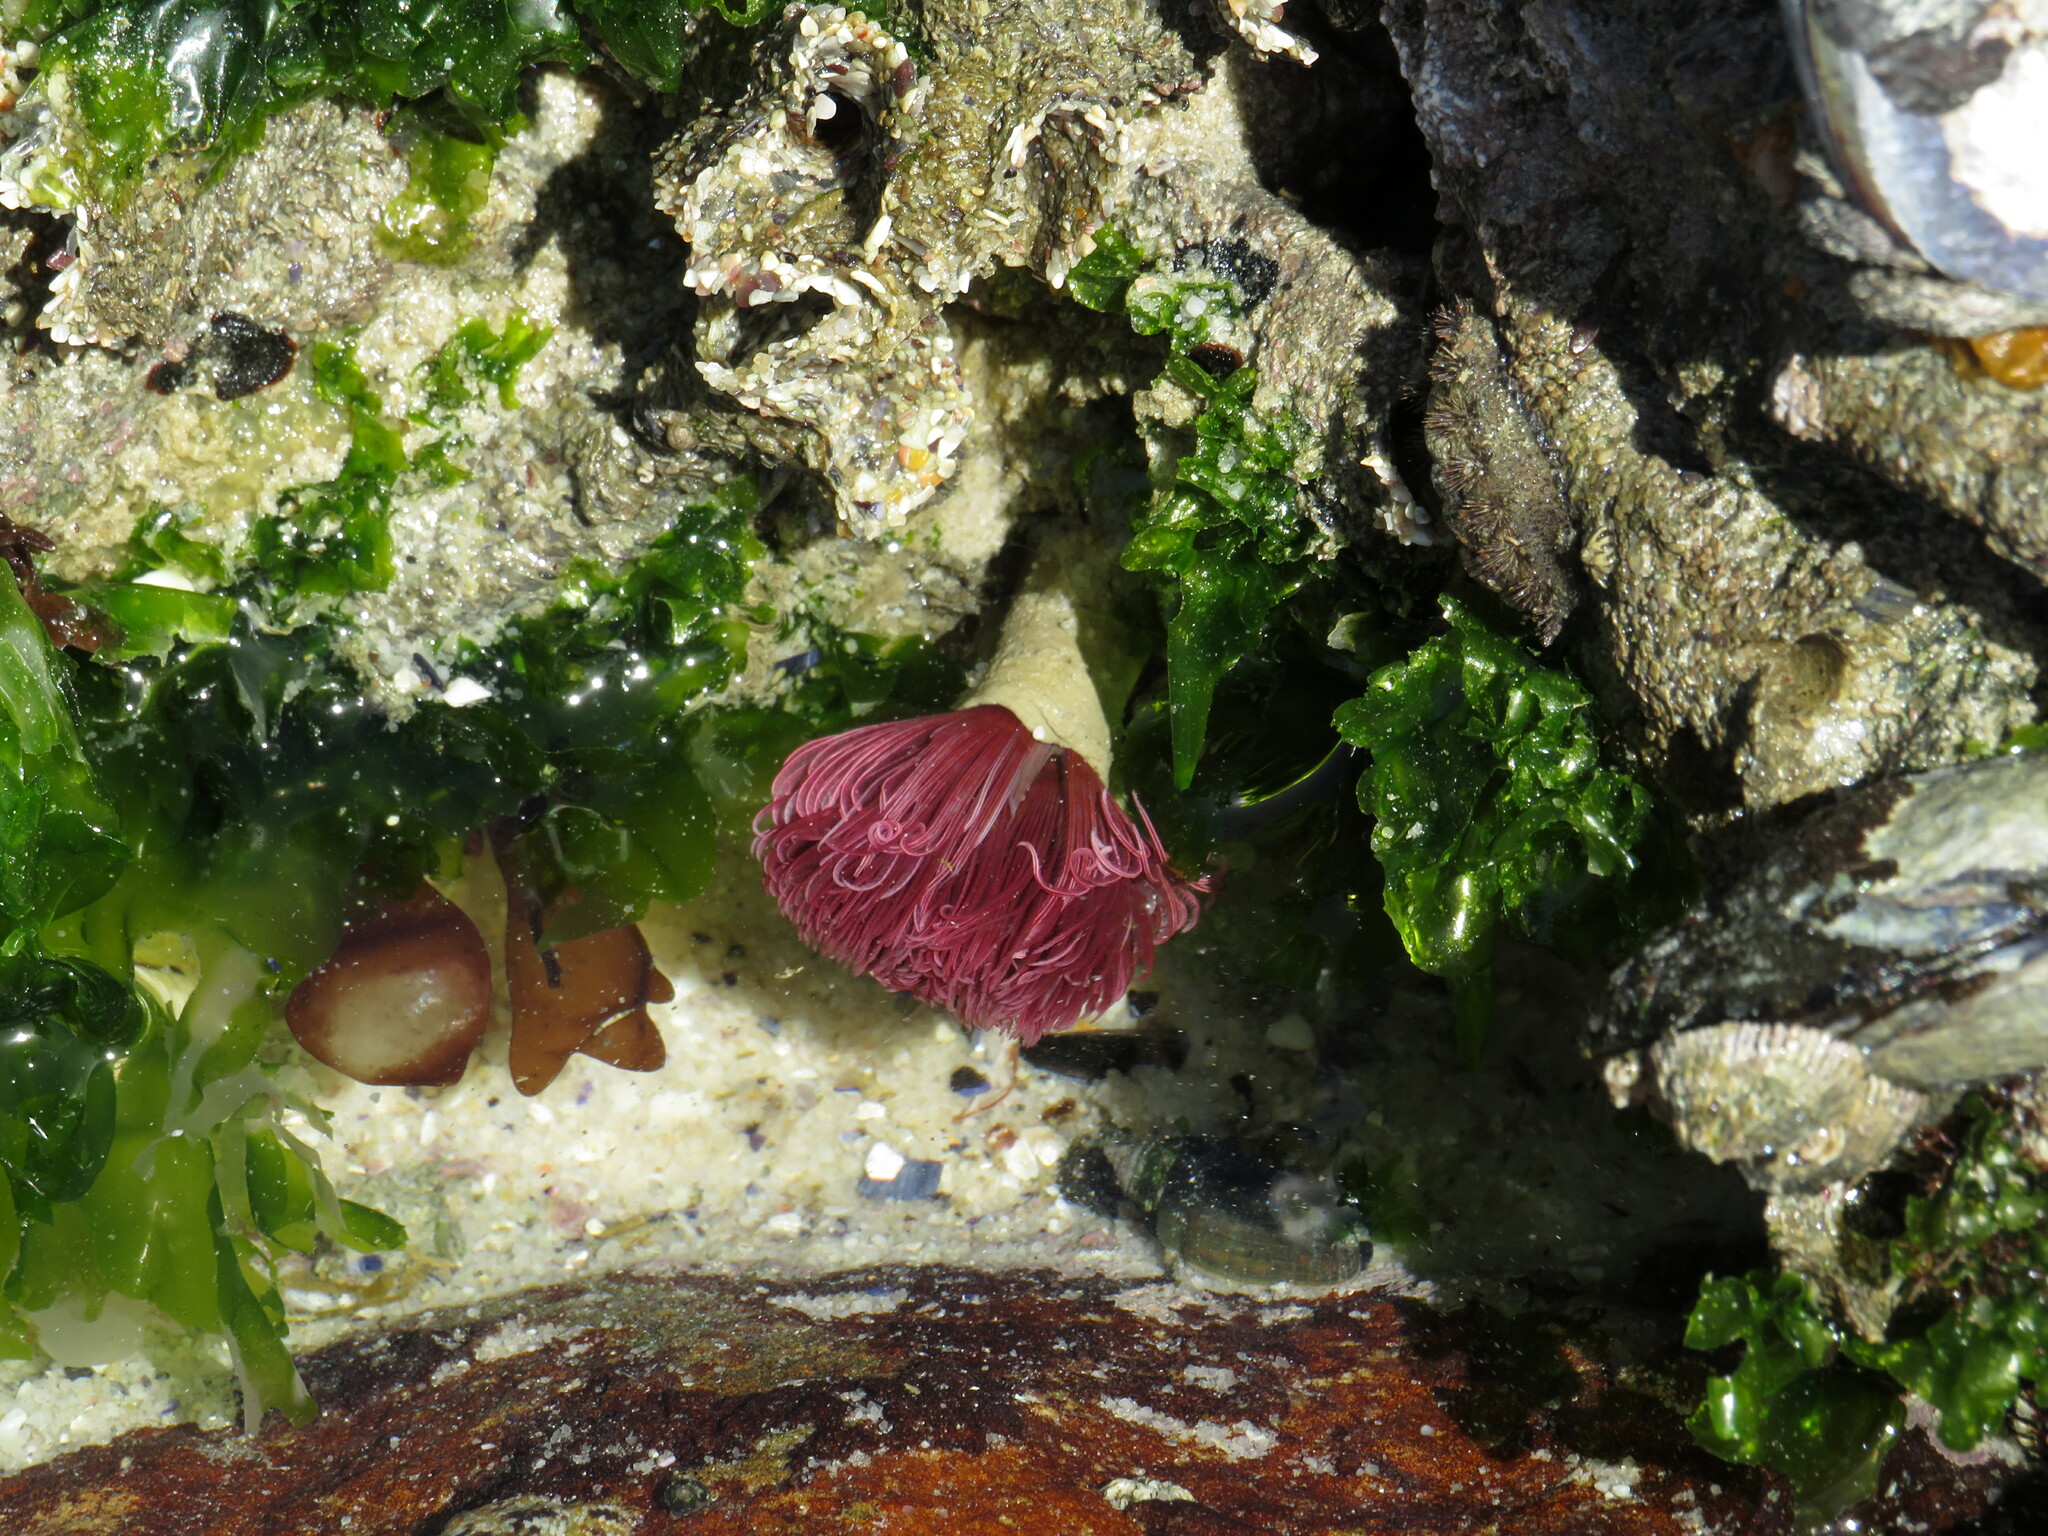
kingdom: Plantae
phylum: Chlorophyta
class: Ulvophyceae
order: Ulvales
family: Ulvaceae
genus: Ulva
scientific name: Ulva rigida
